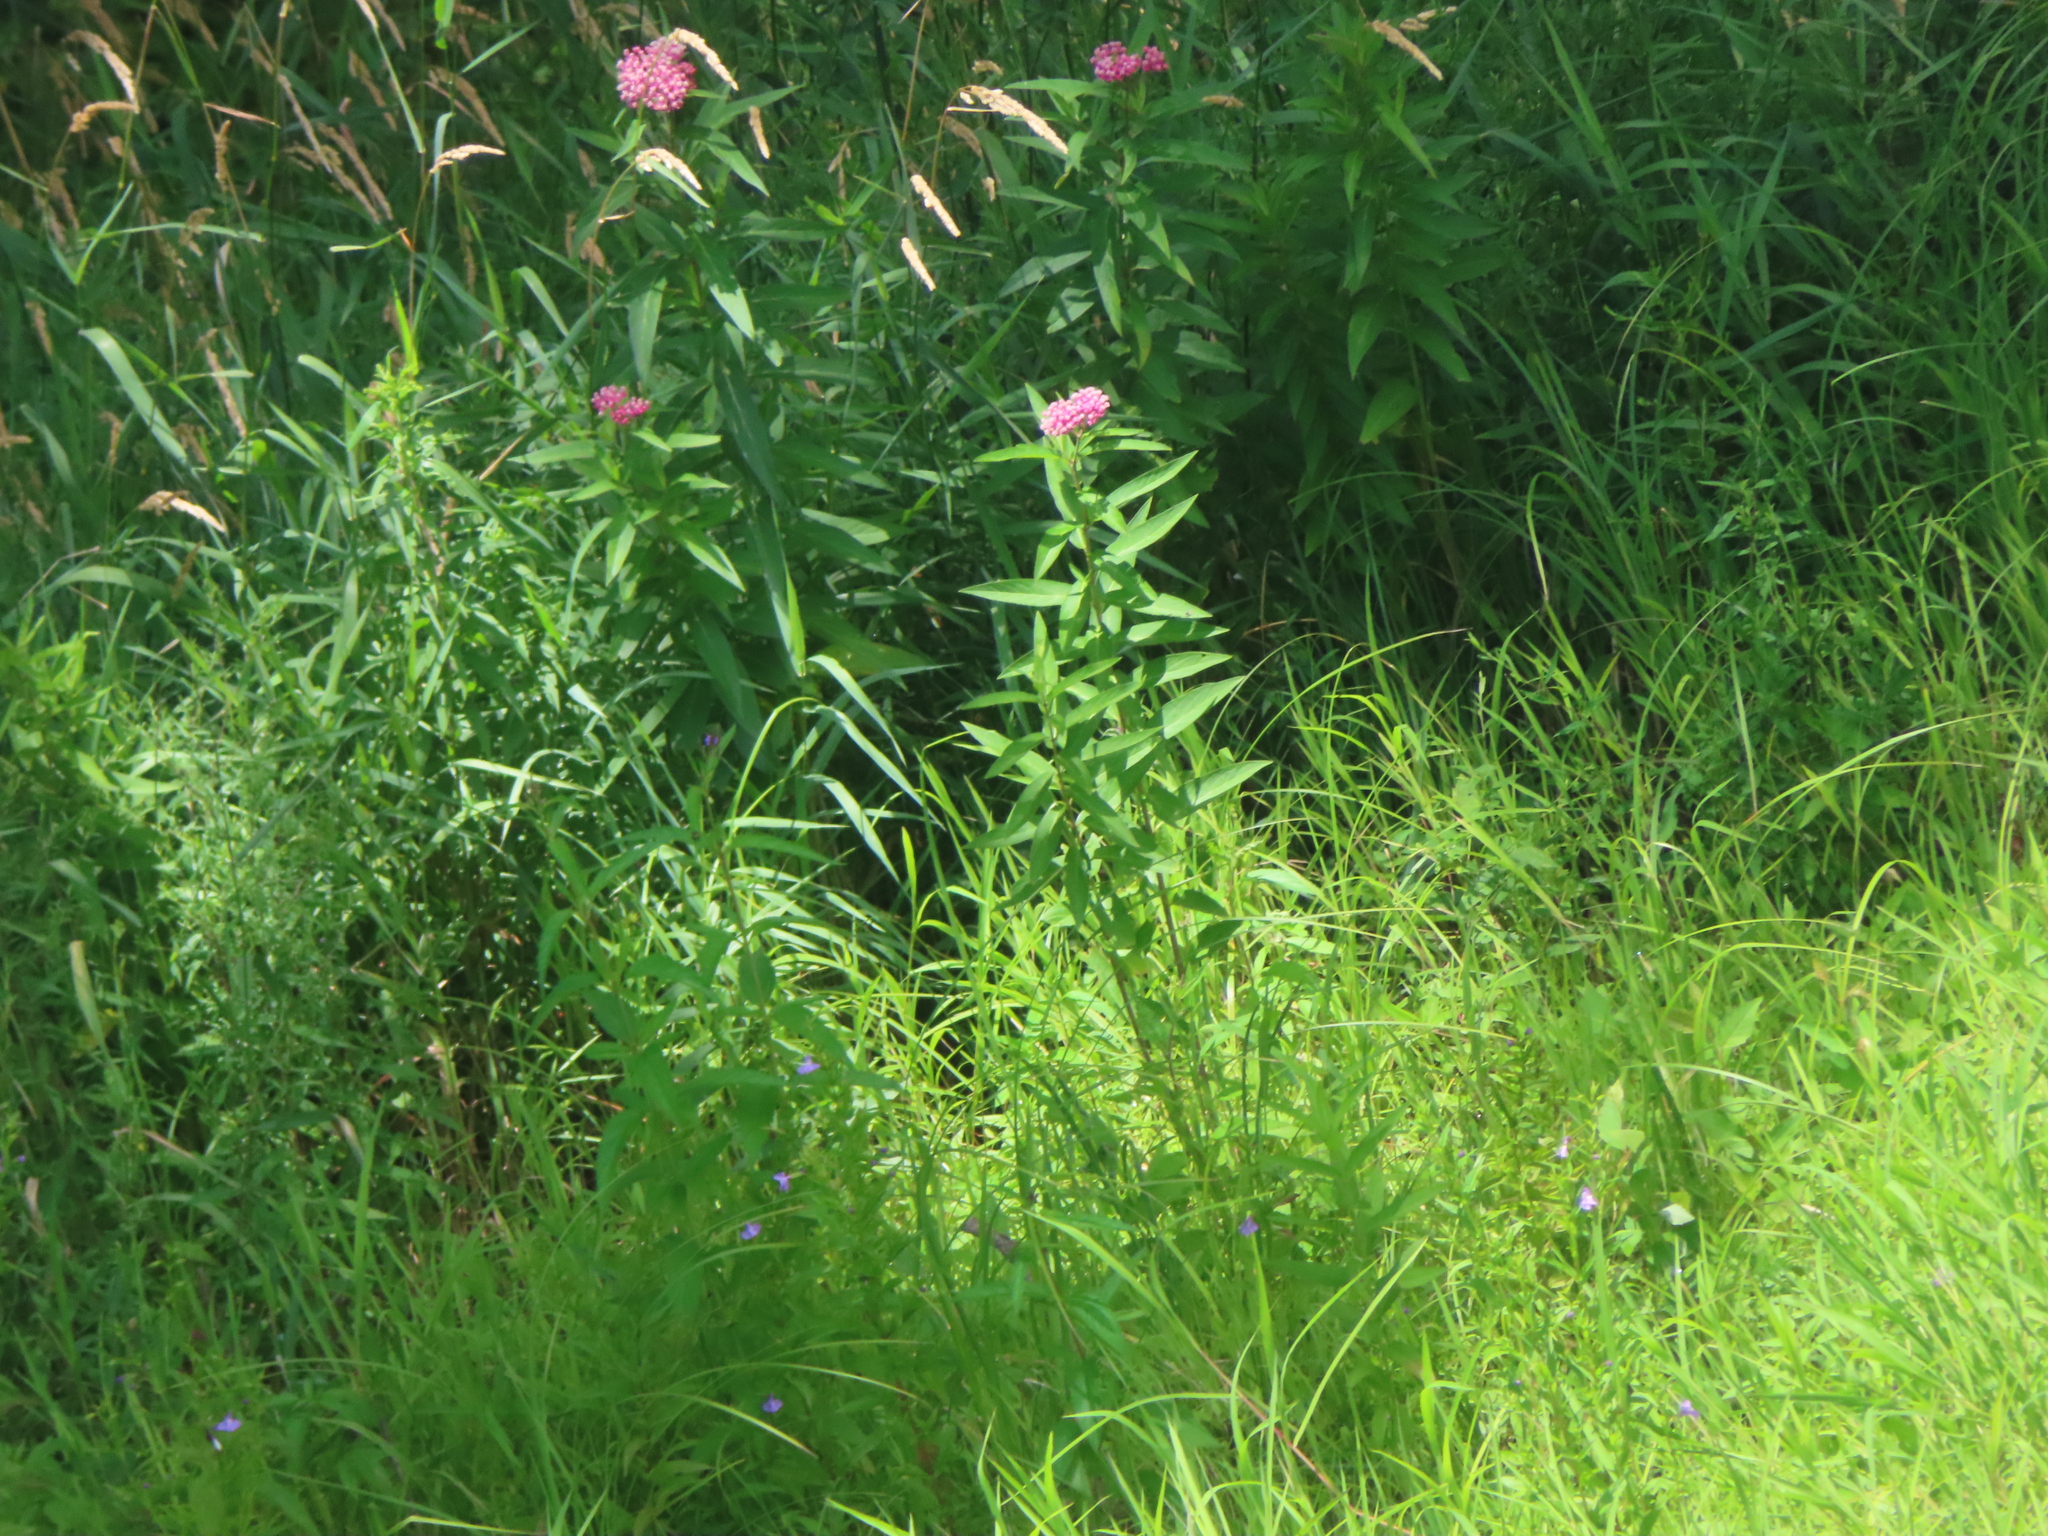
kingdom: Plantae
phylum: Tracheophyta
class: Magnoliopsida
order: Gentianales
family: Apocynaceae
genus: Asclepias
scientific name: Asclepias incarnata
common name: Swamp milkweed
